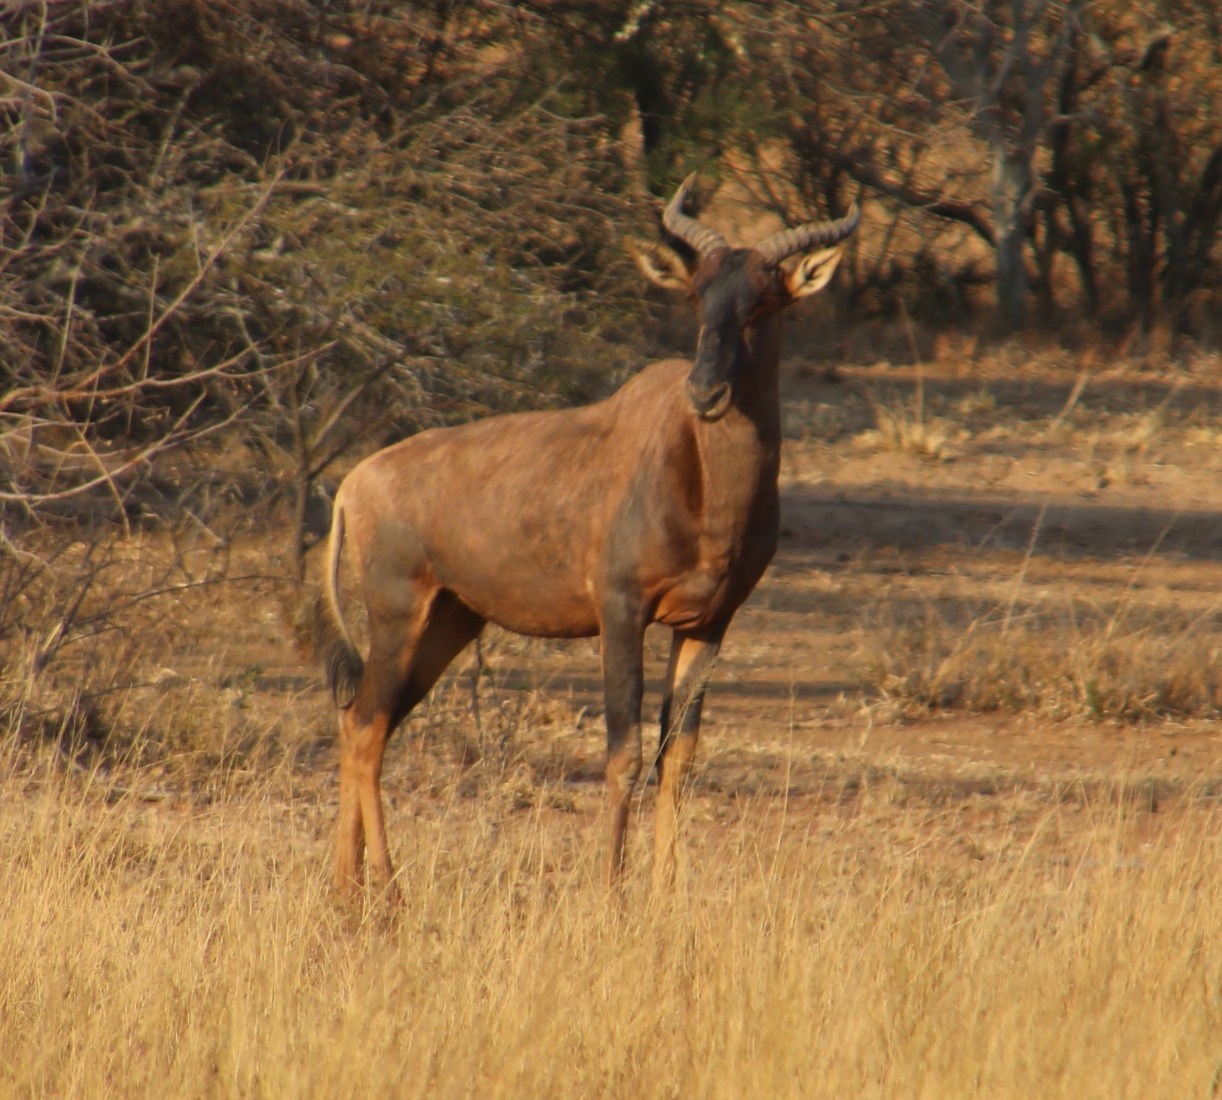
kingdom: Animalia
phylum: Chordata
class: Mammalia
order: Artiodactyla
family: Bovidae
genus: Damaliscus
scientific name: Damaliscus lunatus
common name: Common tsessebe
